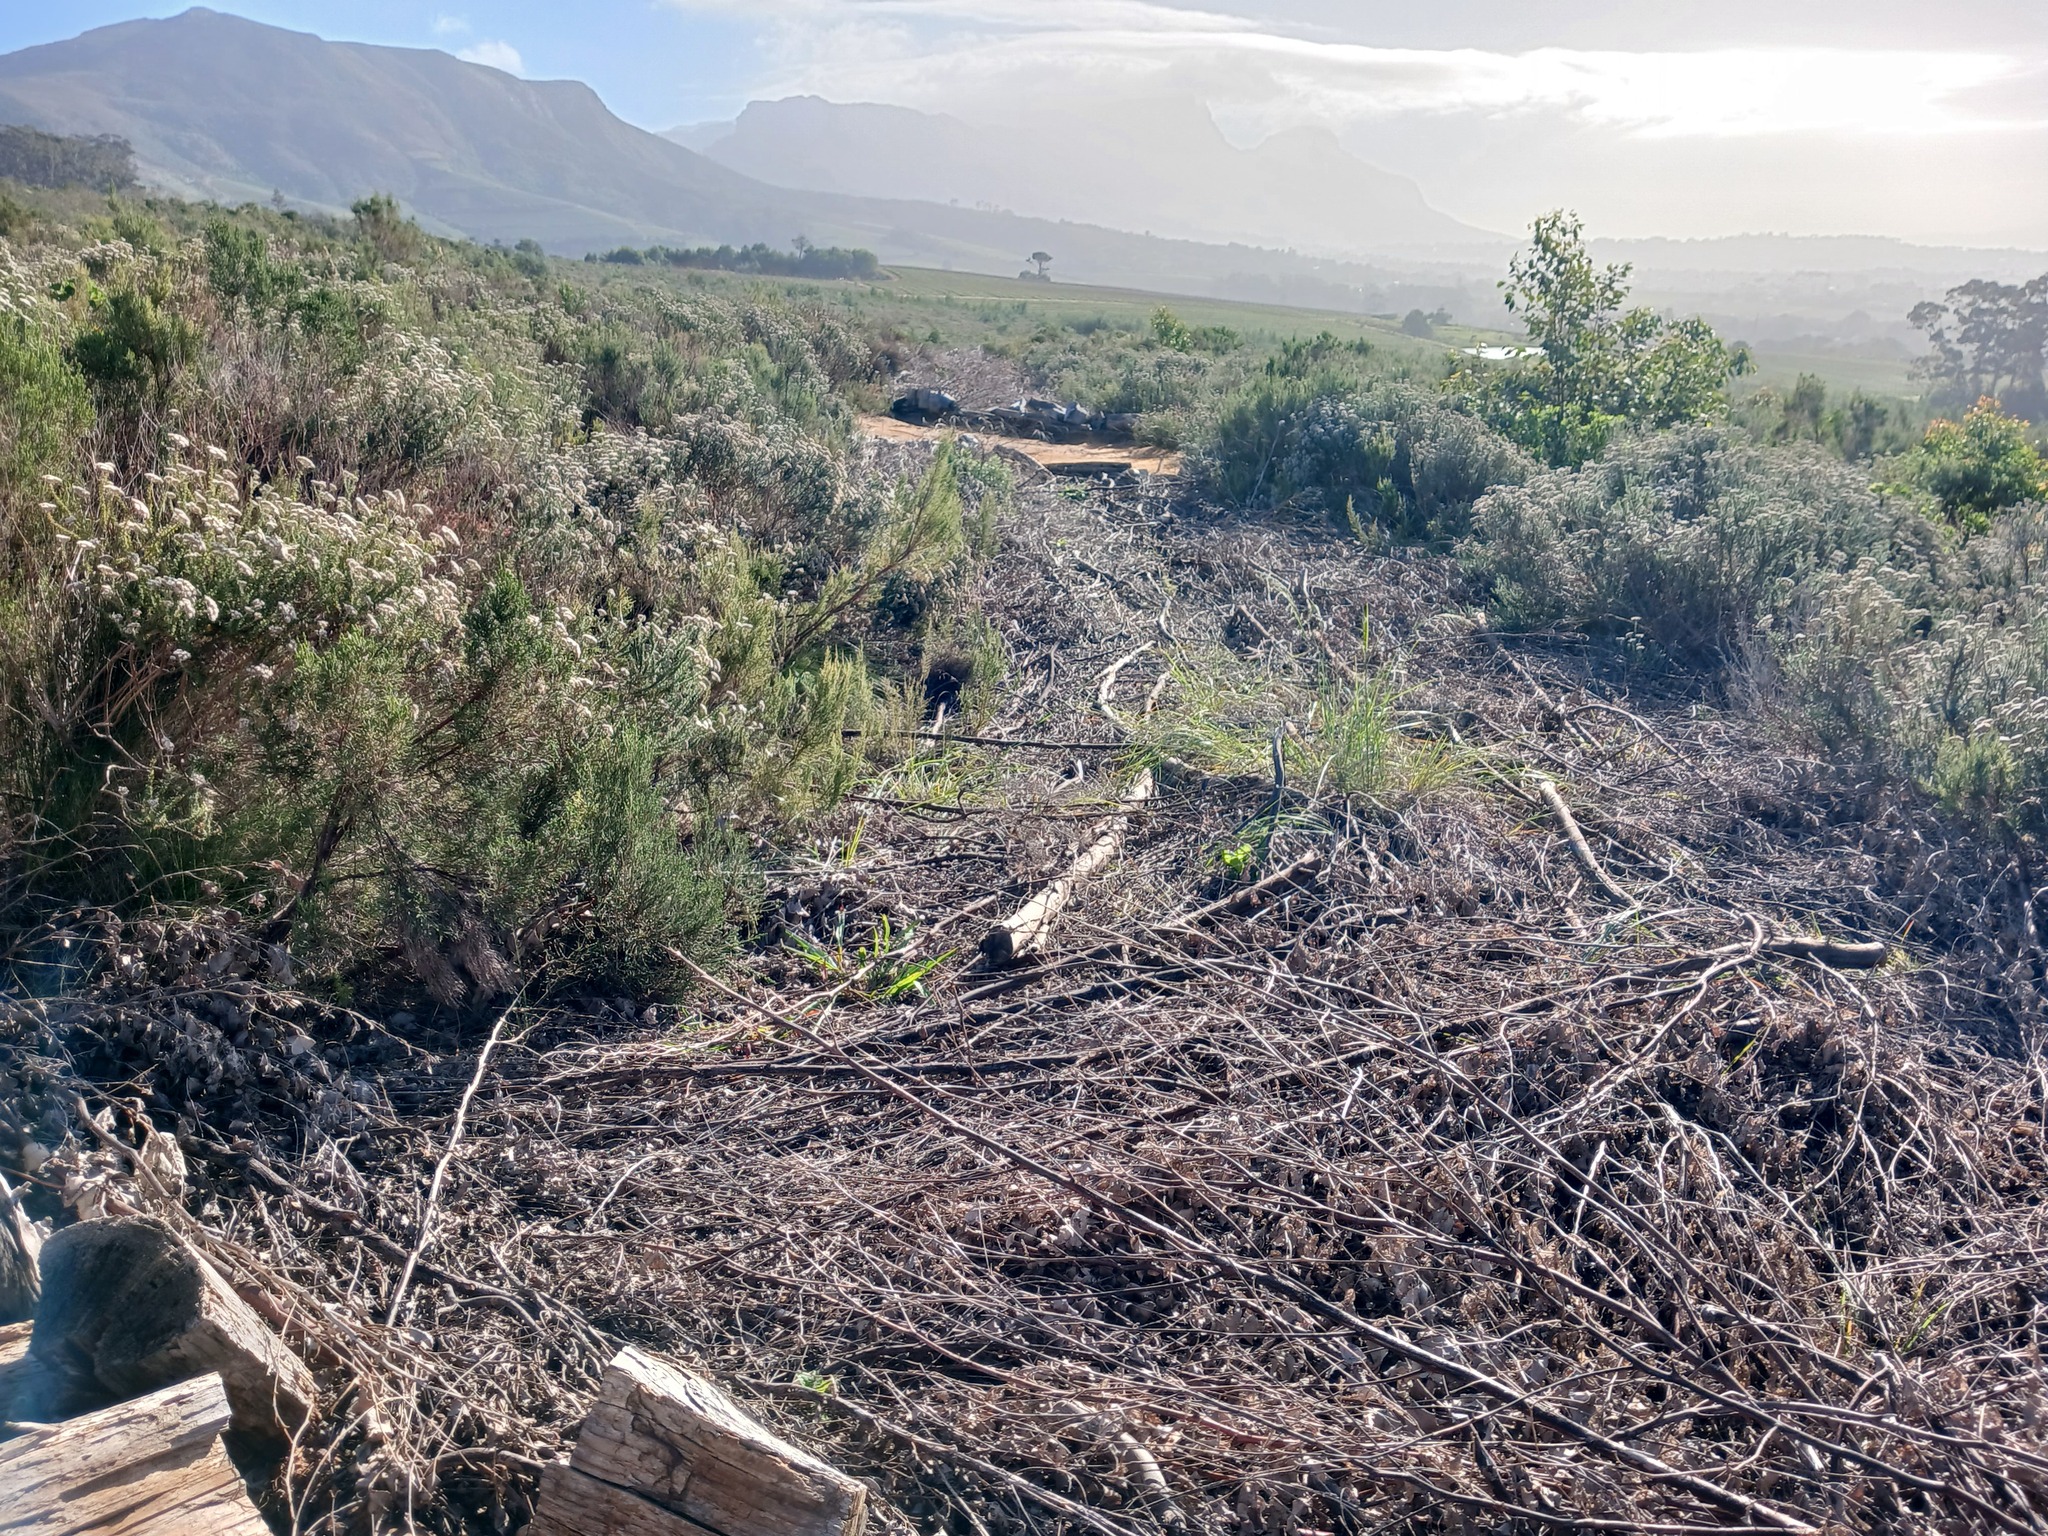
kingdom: Plantae
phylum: Tracheophyta
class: Magnoliopsida
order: Asterales
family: Asteraceae
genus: Metalasia
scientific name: Metalasia densa
